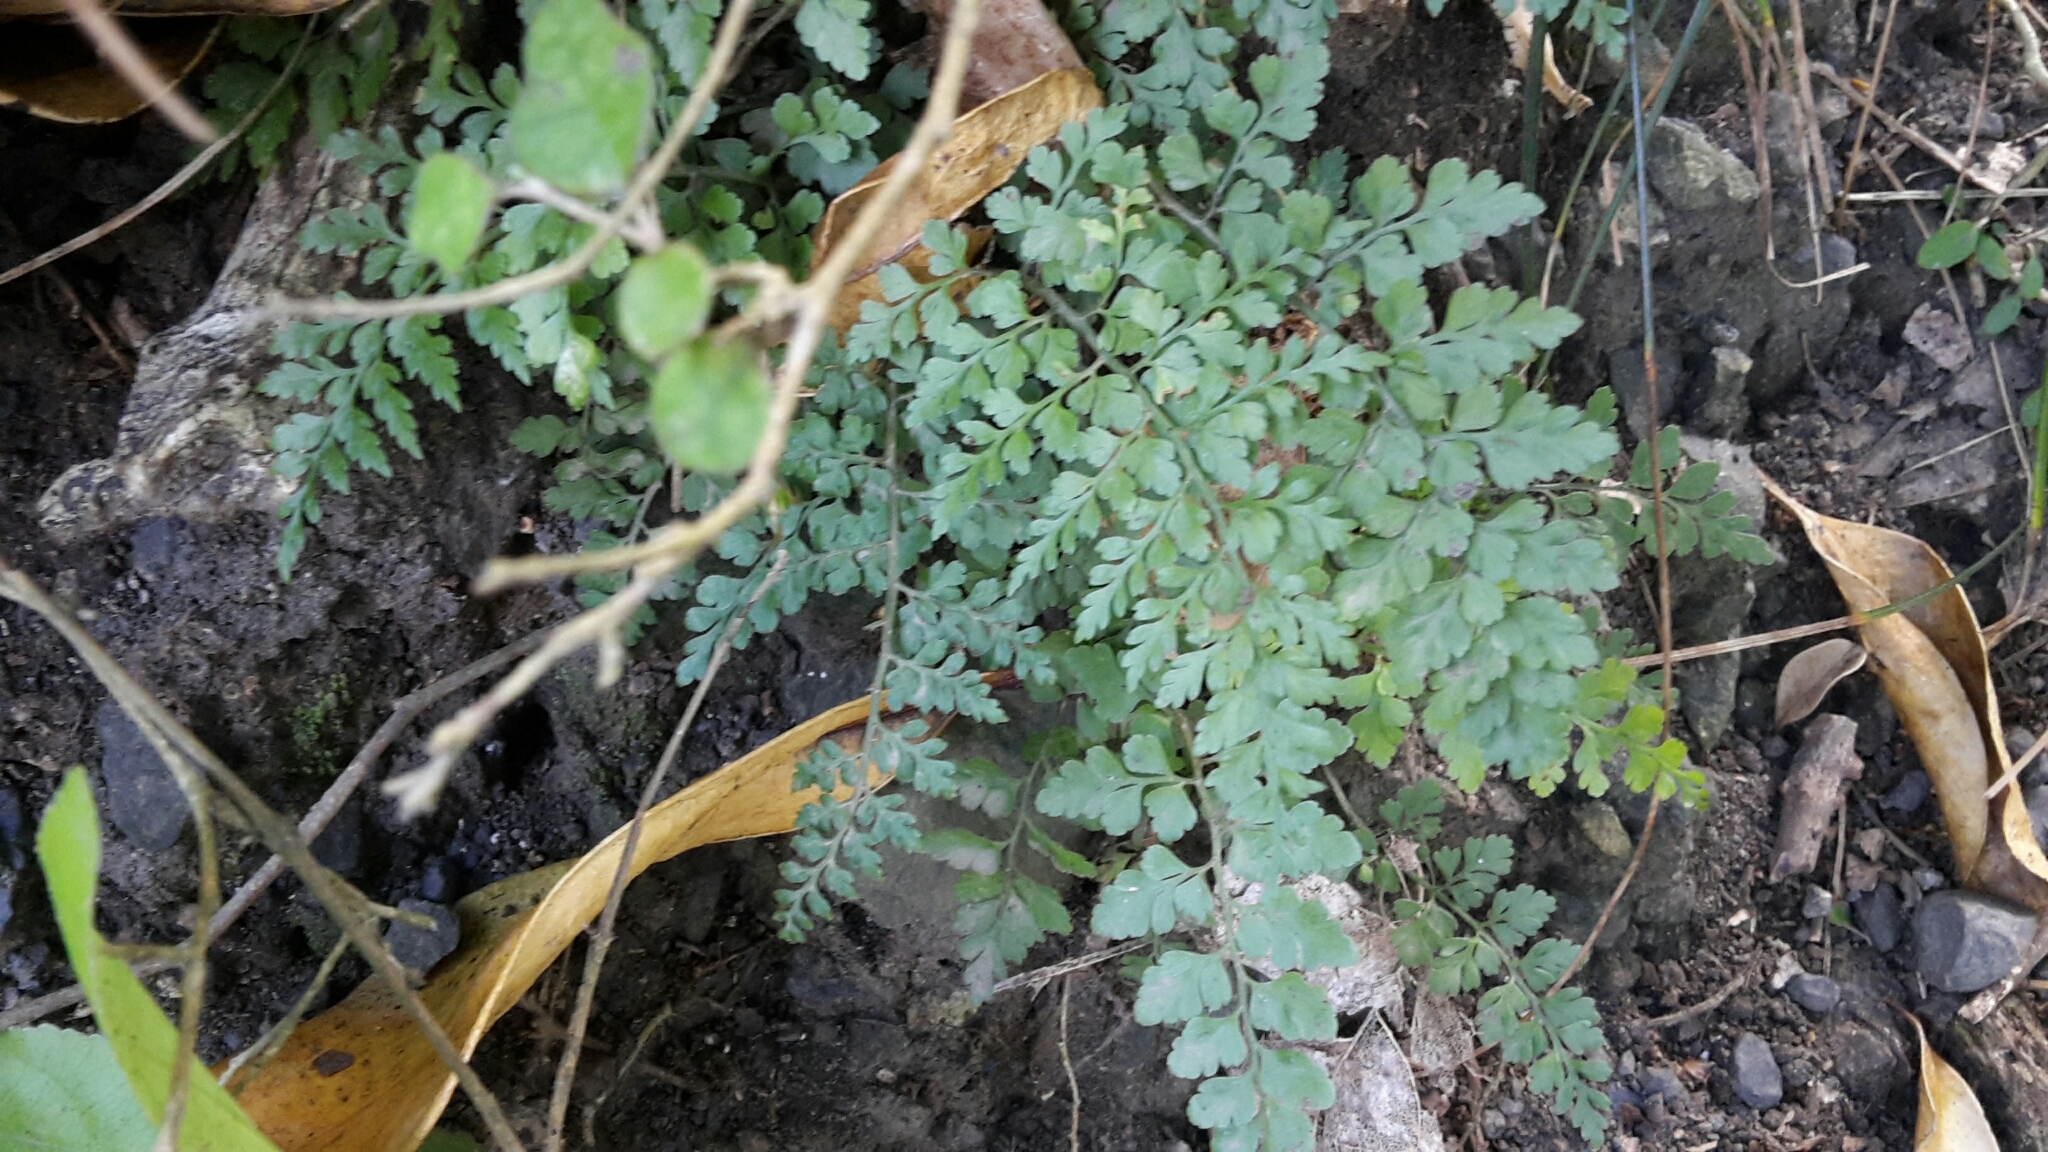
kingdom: Plantae
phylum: Tracheophyta
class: Polypodiopsida
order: Polypodiales
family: Aspleniaceae
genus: Asplenium
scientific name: Asplenium hookerianum
